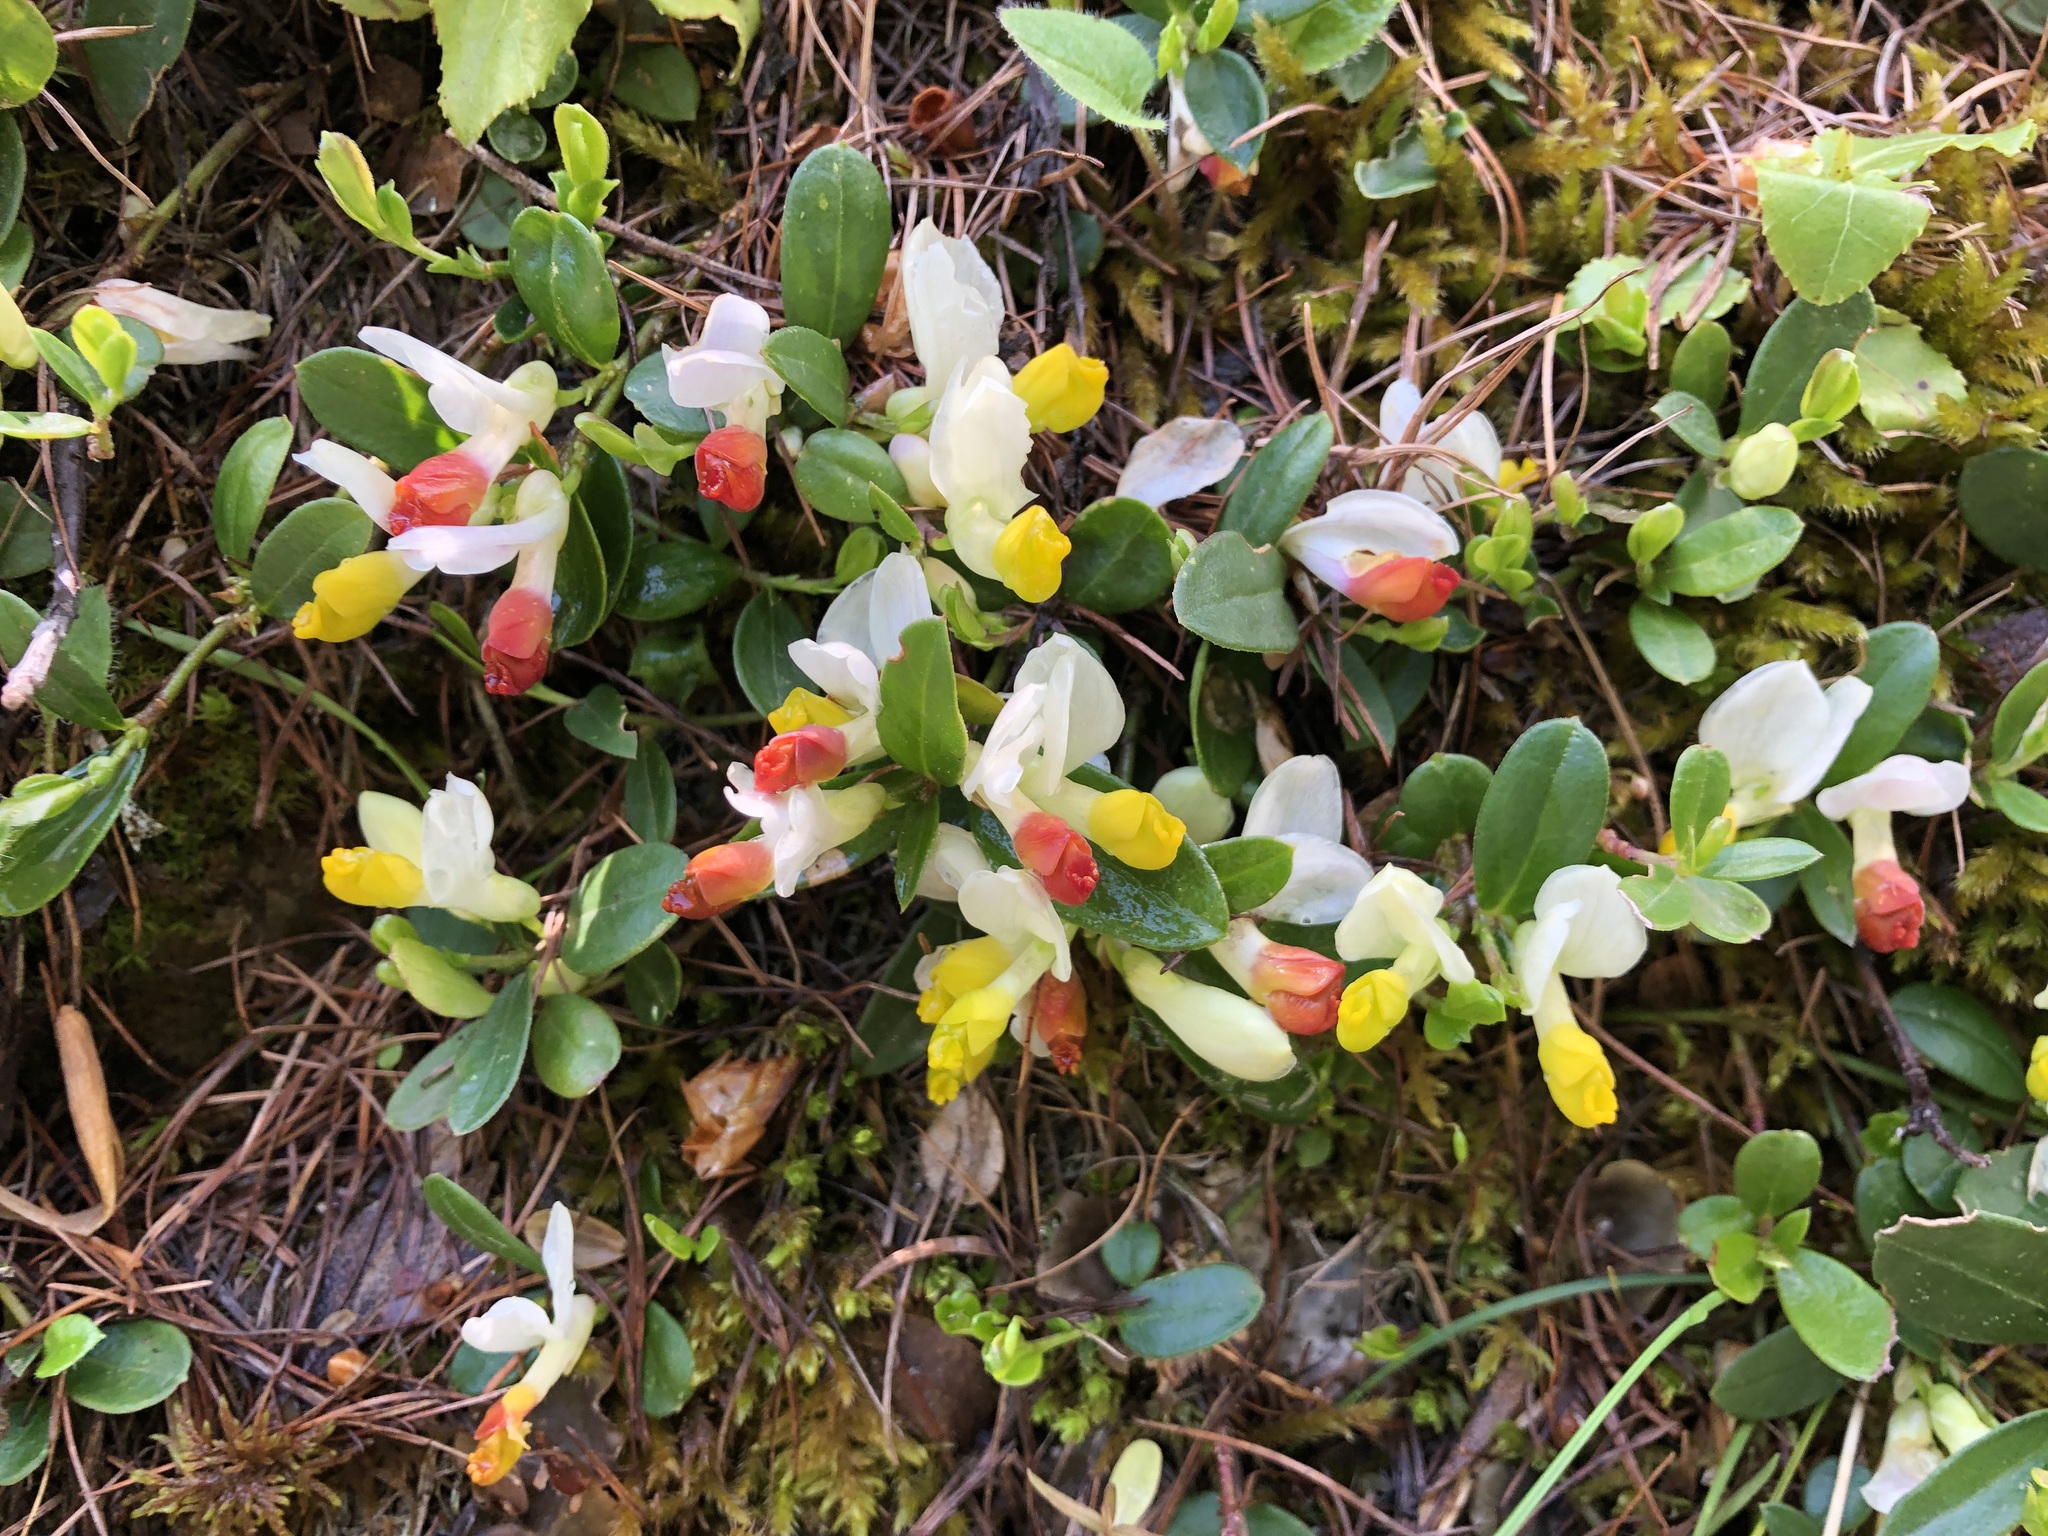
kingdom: Plantae
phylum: Tracheophyta
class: Magnoliopsida
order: Fabales
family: Polygalaceae
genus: Polygaloides
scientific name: Polygaloides chamaebuxus
